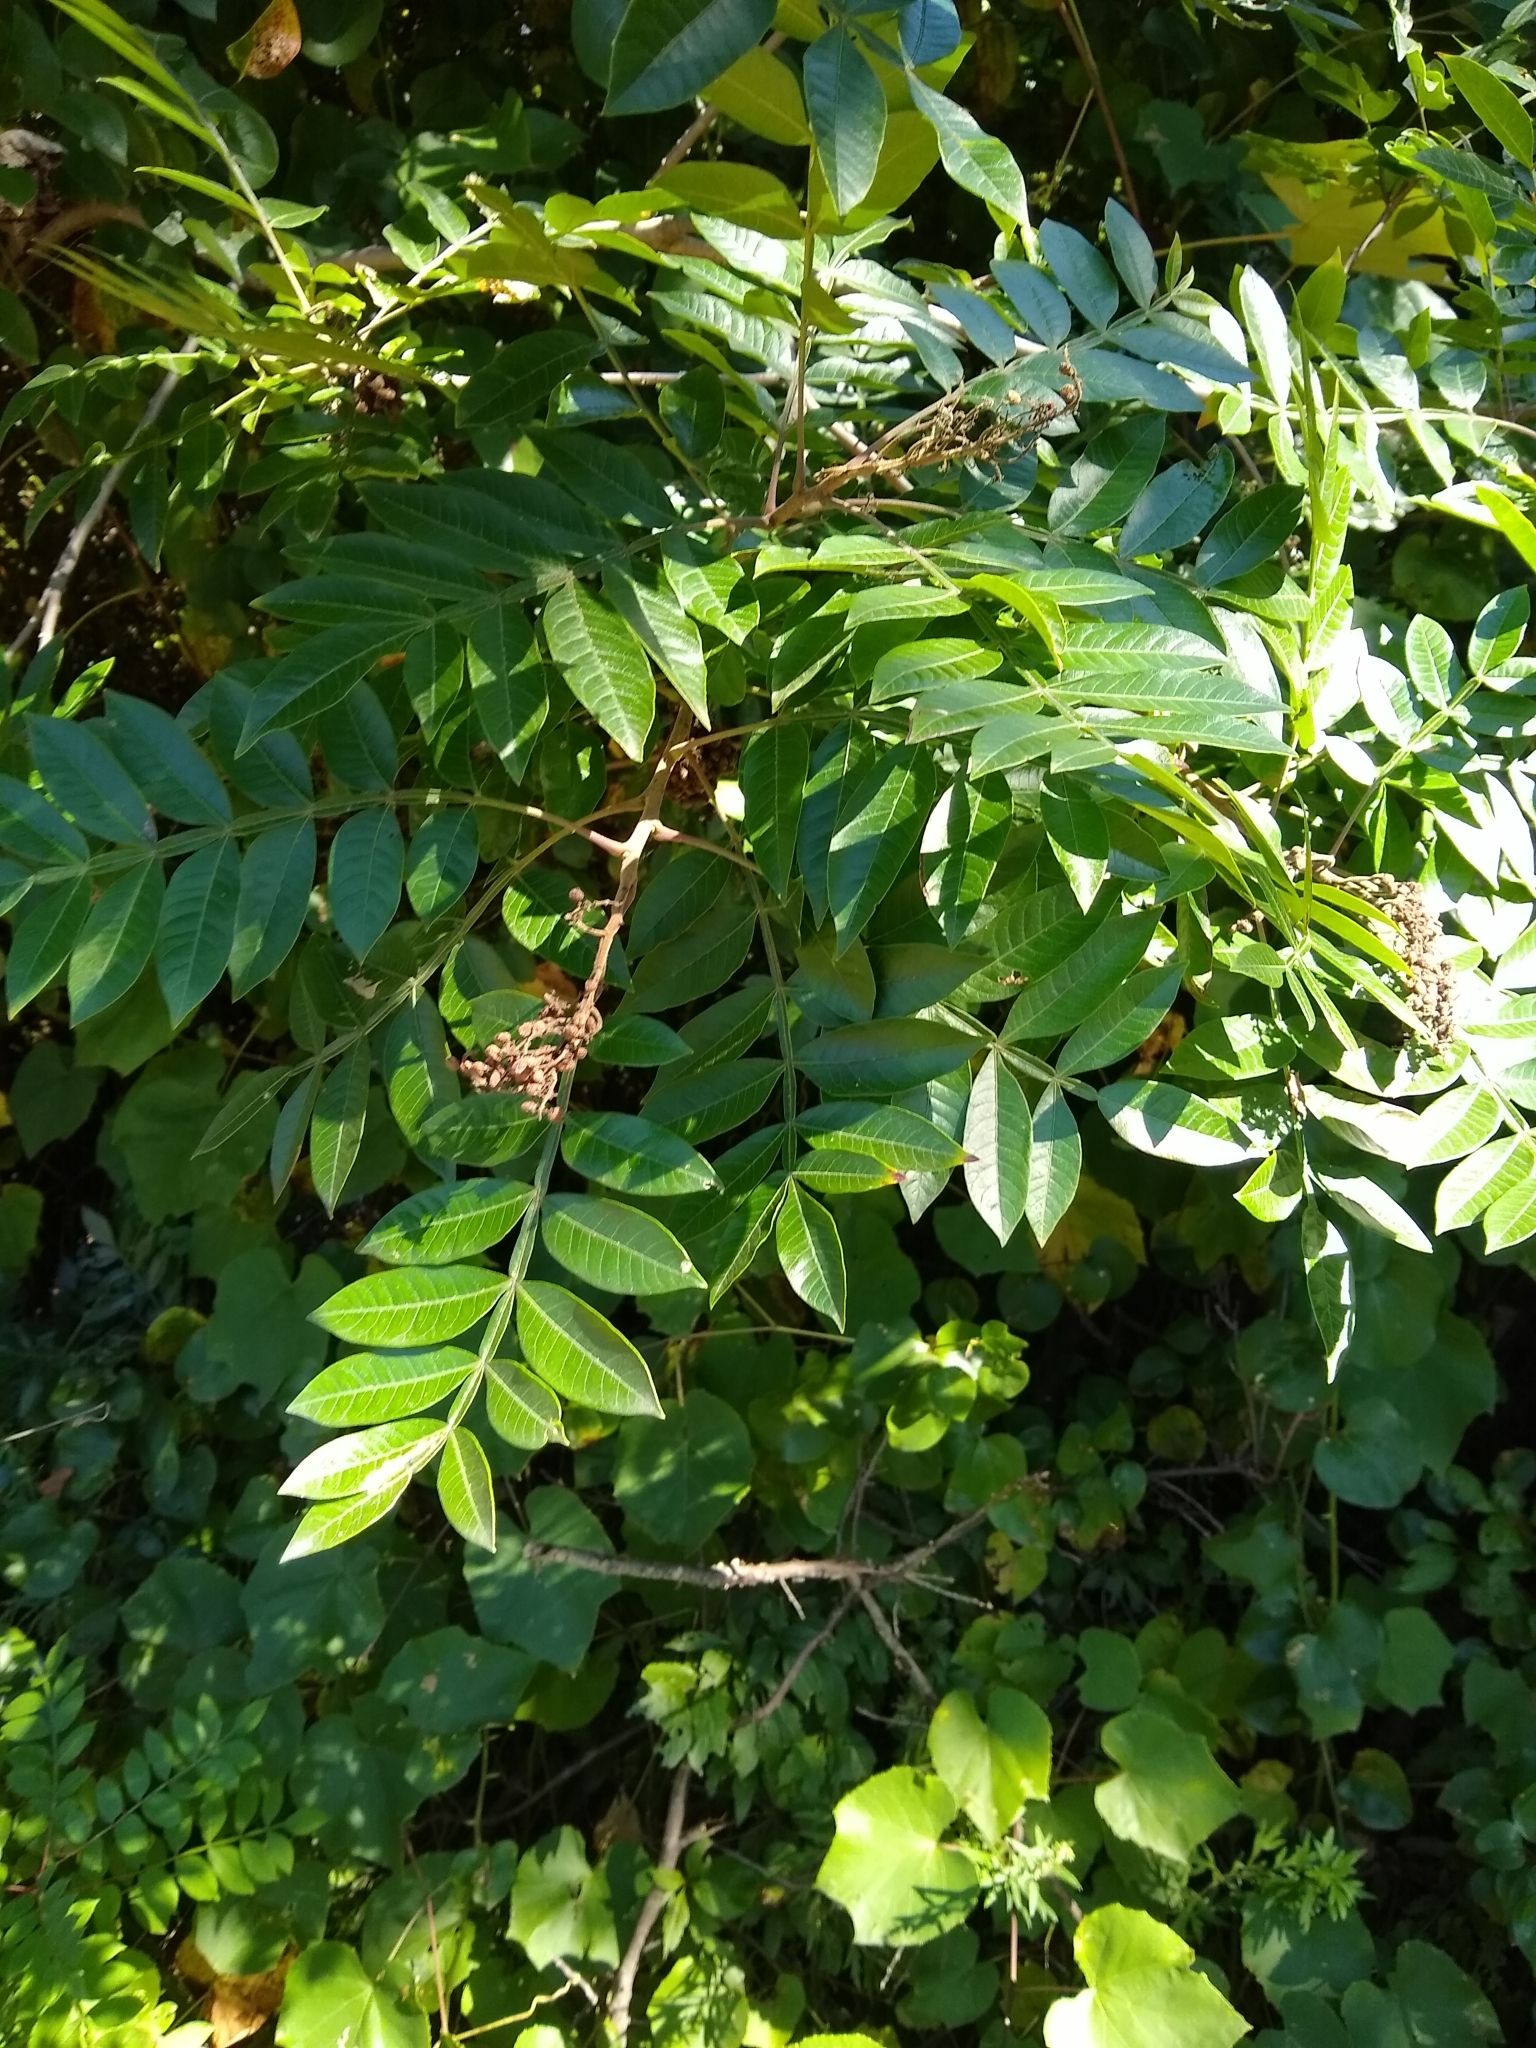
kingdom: Plantae
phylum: Tracheophyta
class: Magnoliopsida
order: Sapindales
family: Anacardiaceae
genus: Rhus
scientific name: Rhus copallina
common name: Shining sumac
